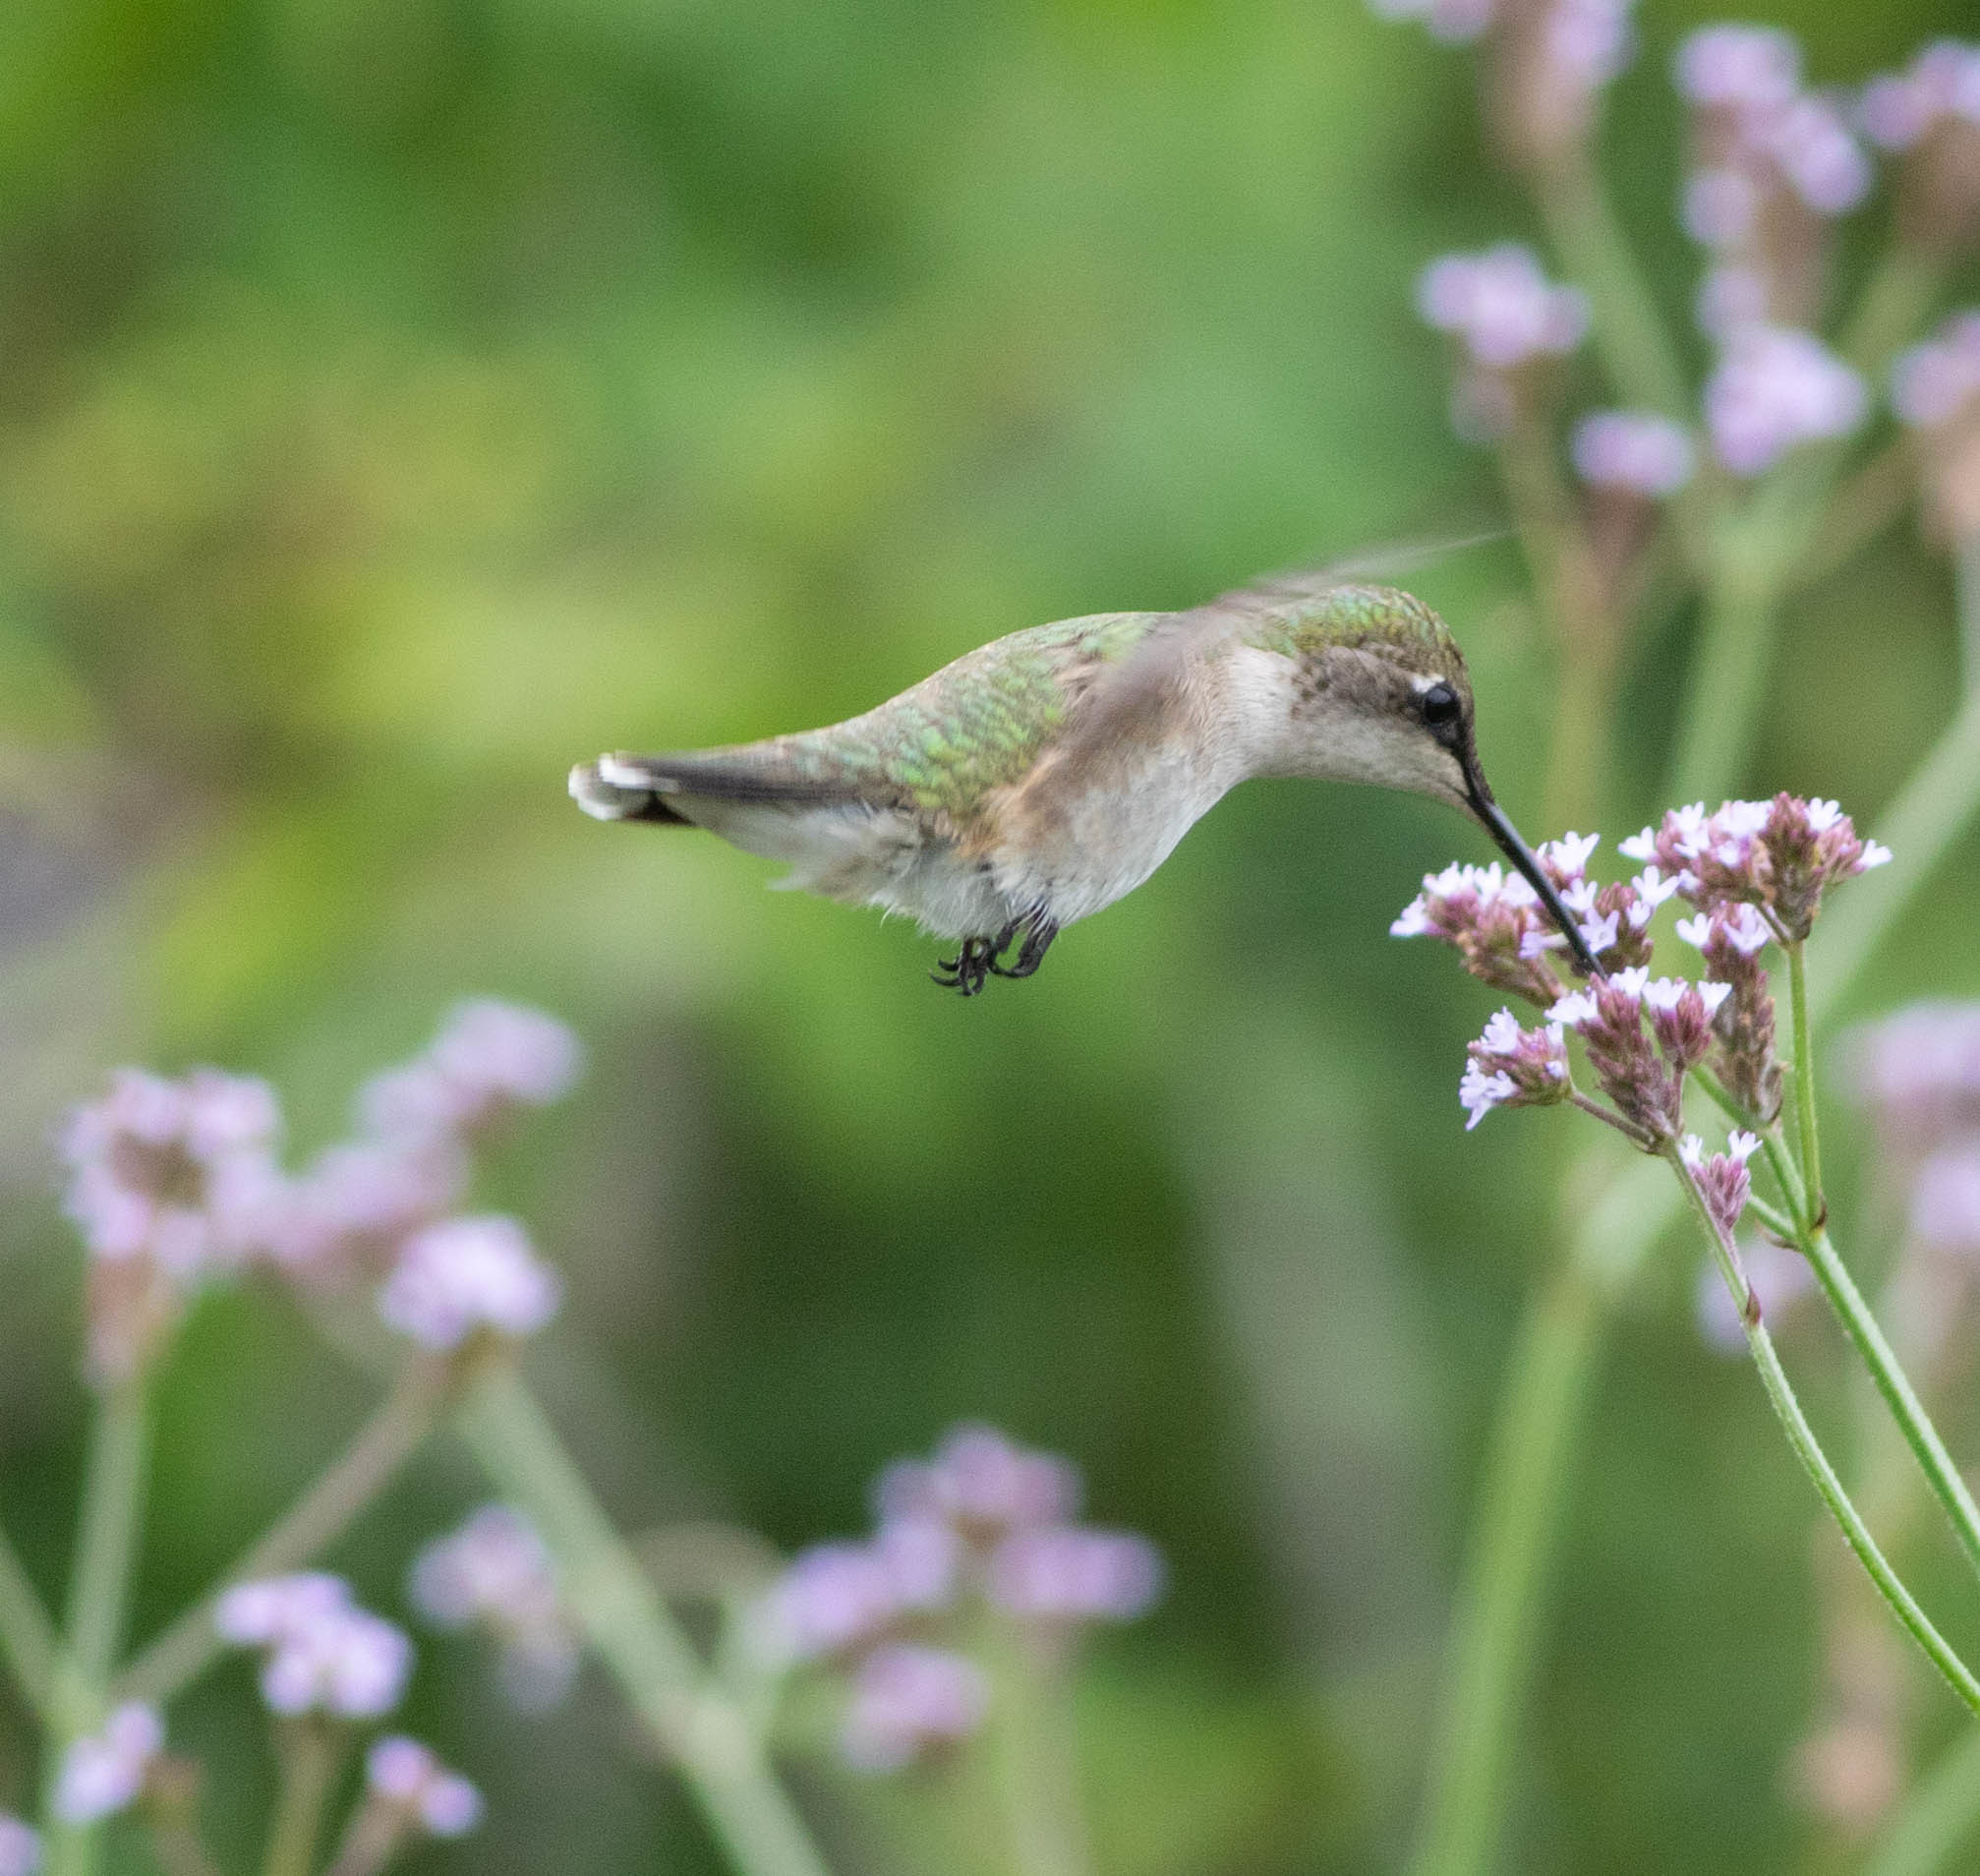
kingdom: Animalia
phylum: Chordata
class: Aves
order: Apodiformes
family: Trochilidae
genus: Archilochus
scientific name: Archilochus colubris
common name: Ruby-throated hummingbird
